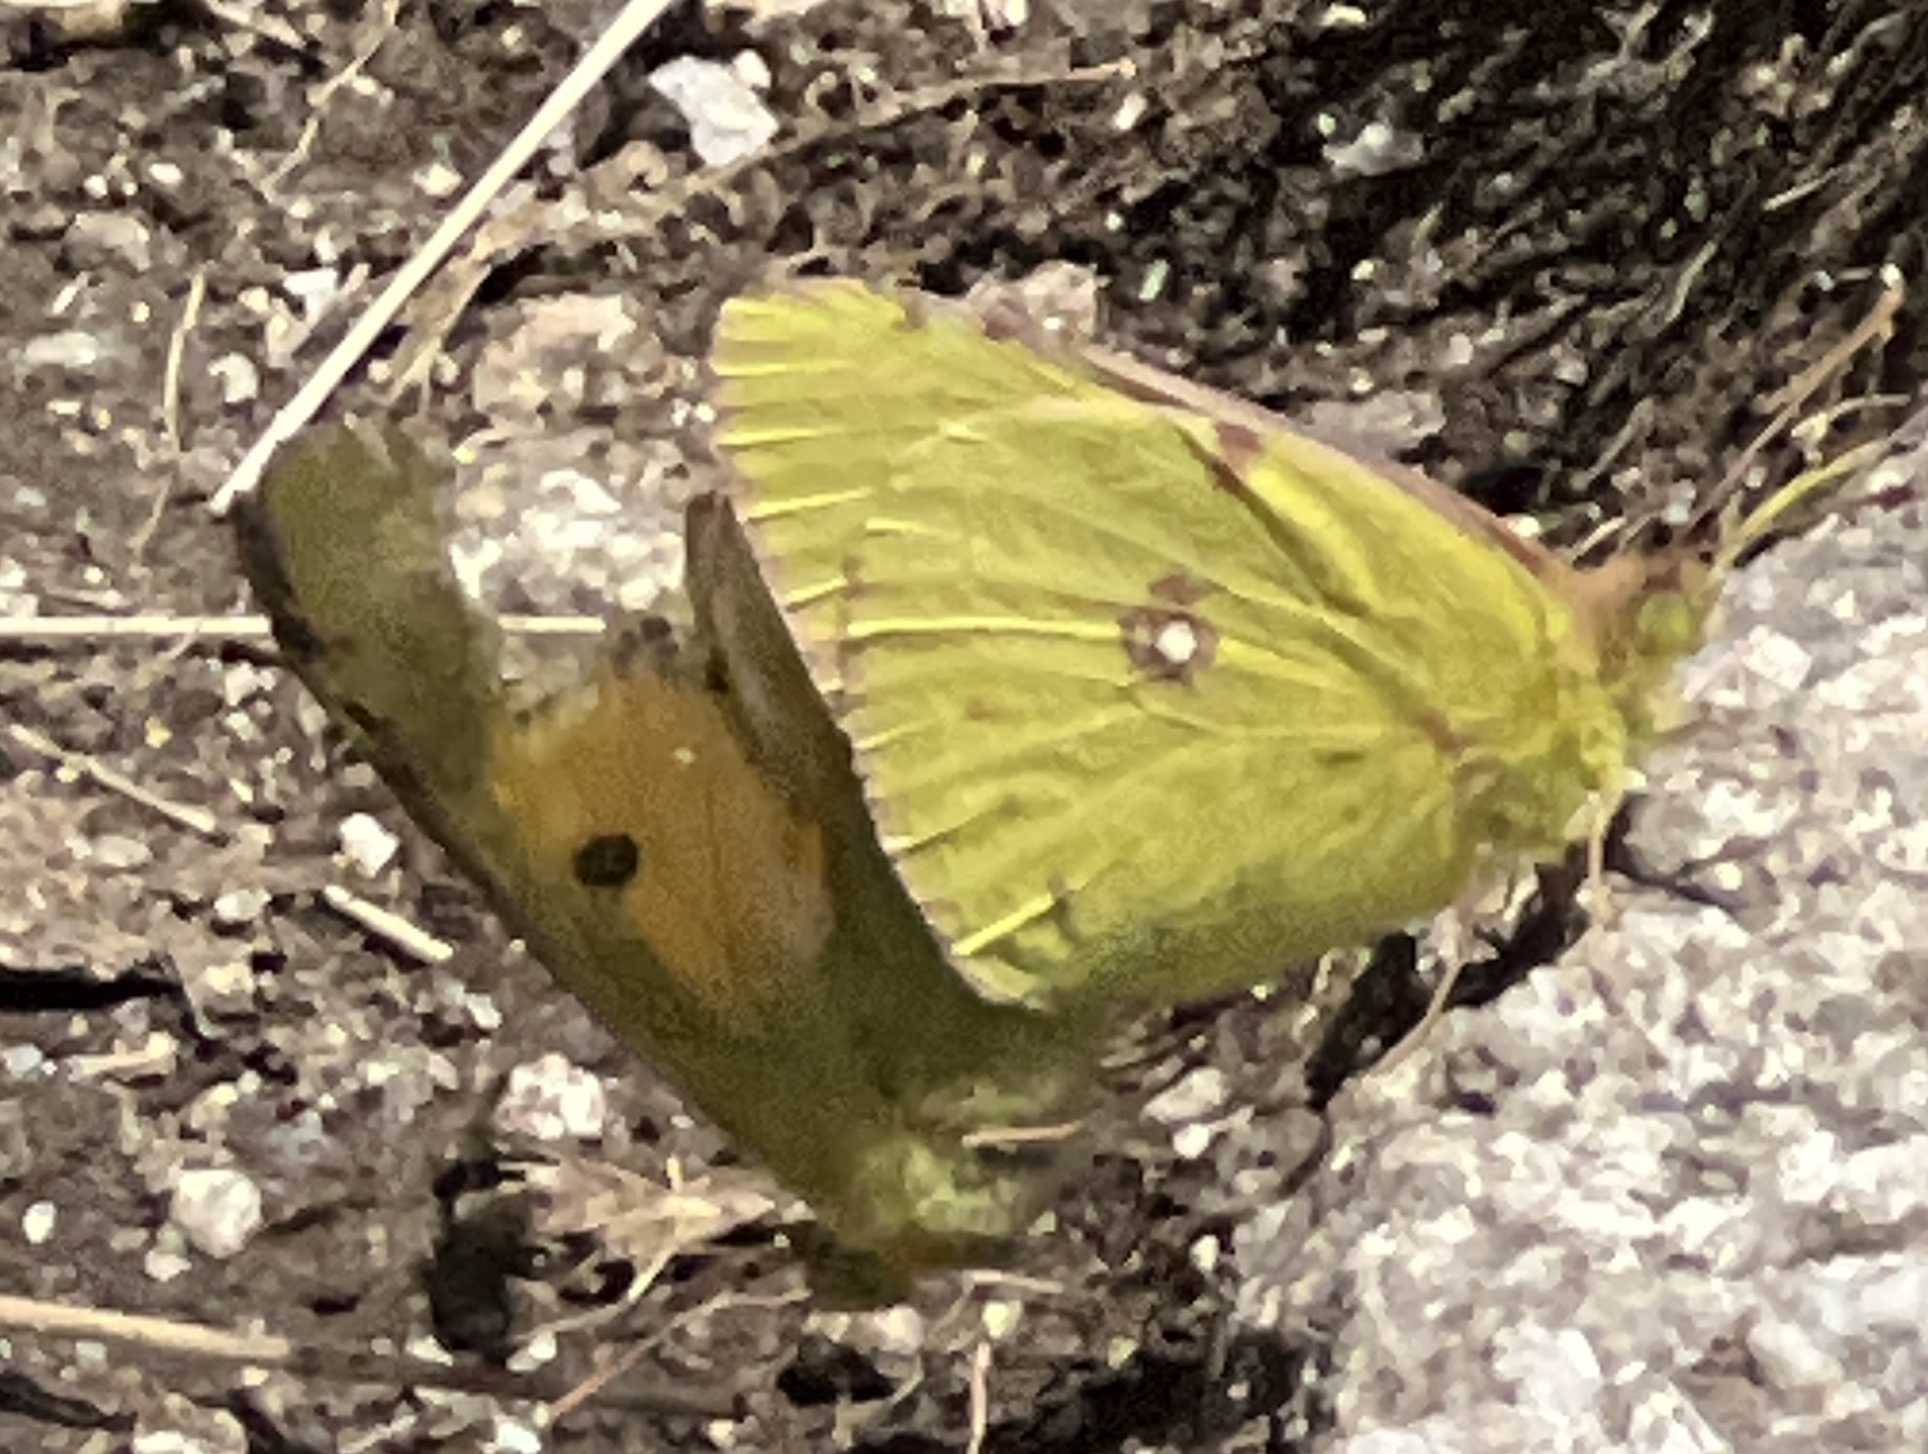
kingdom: Animalia
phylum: Arthropoda
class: Insecta
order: Lepidoptera
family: Pieridae
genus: Colias
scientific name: Colias croceus
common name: Clouded yellow
